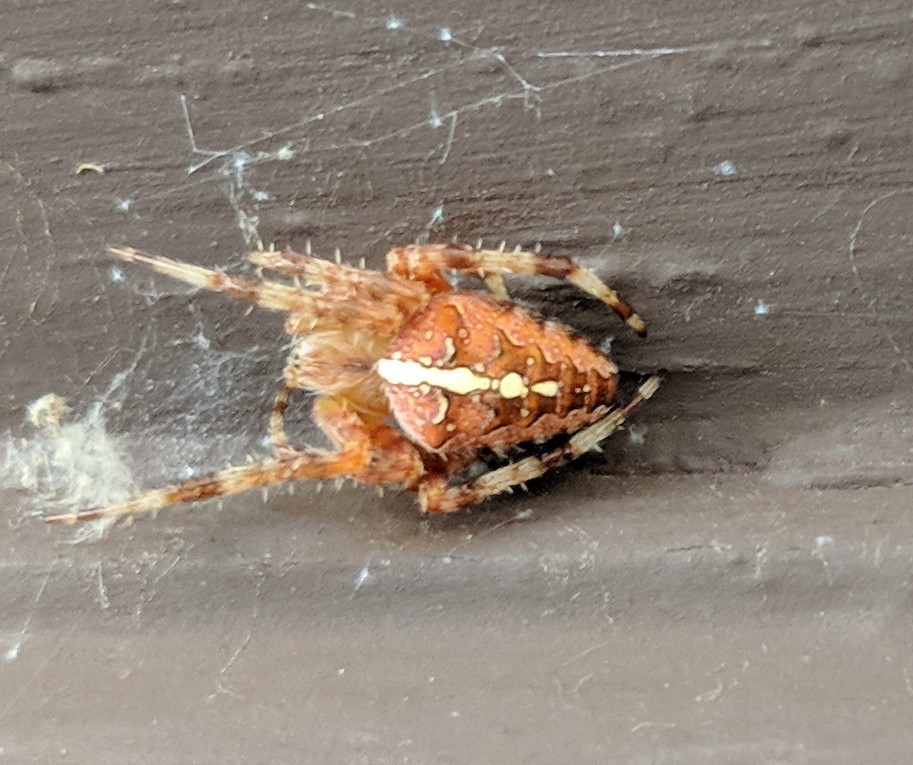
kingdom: Animalia
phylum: Arthropoda
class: Arachnida
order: Araneae
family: Araneidae
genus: Araneus
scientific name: Araneus diadematus
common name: Cross orbweaver
